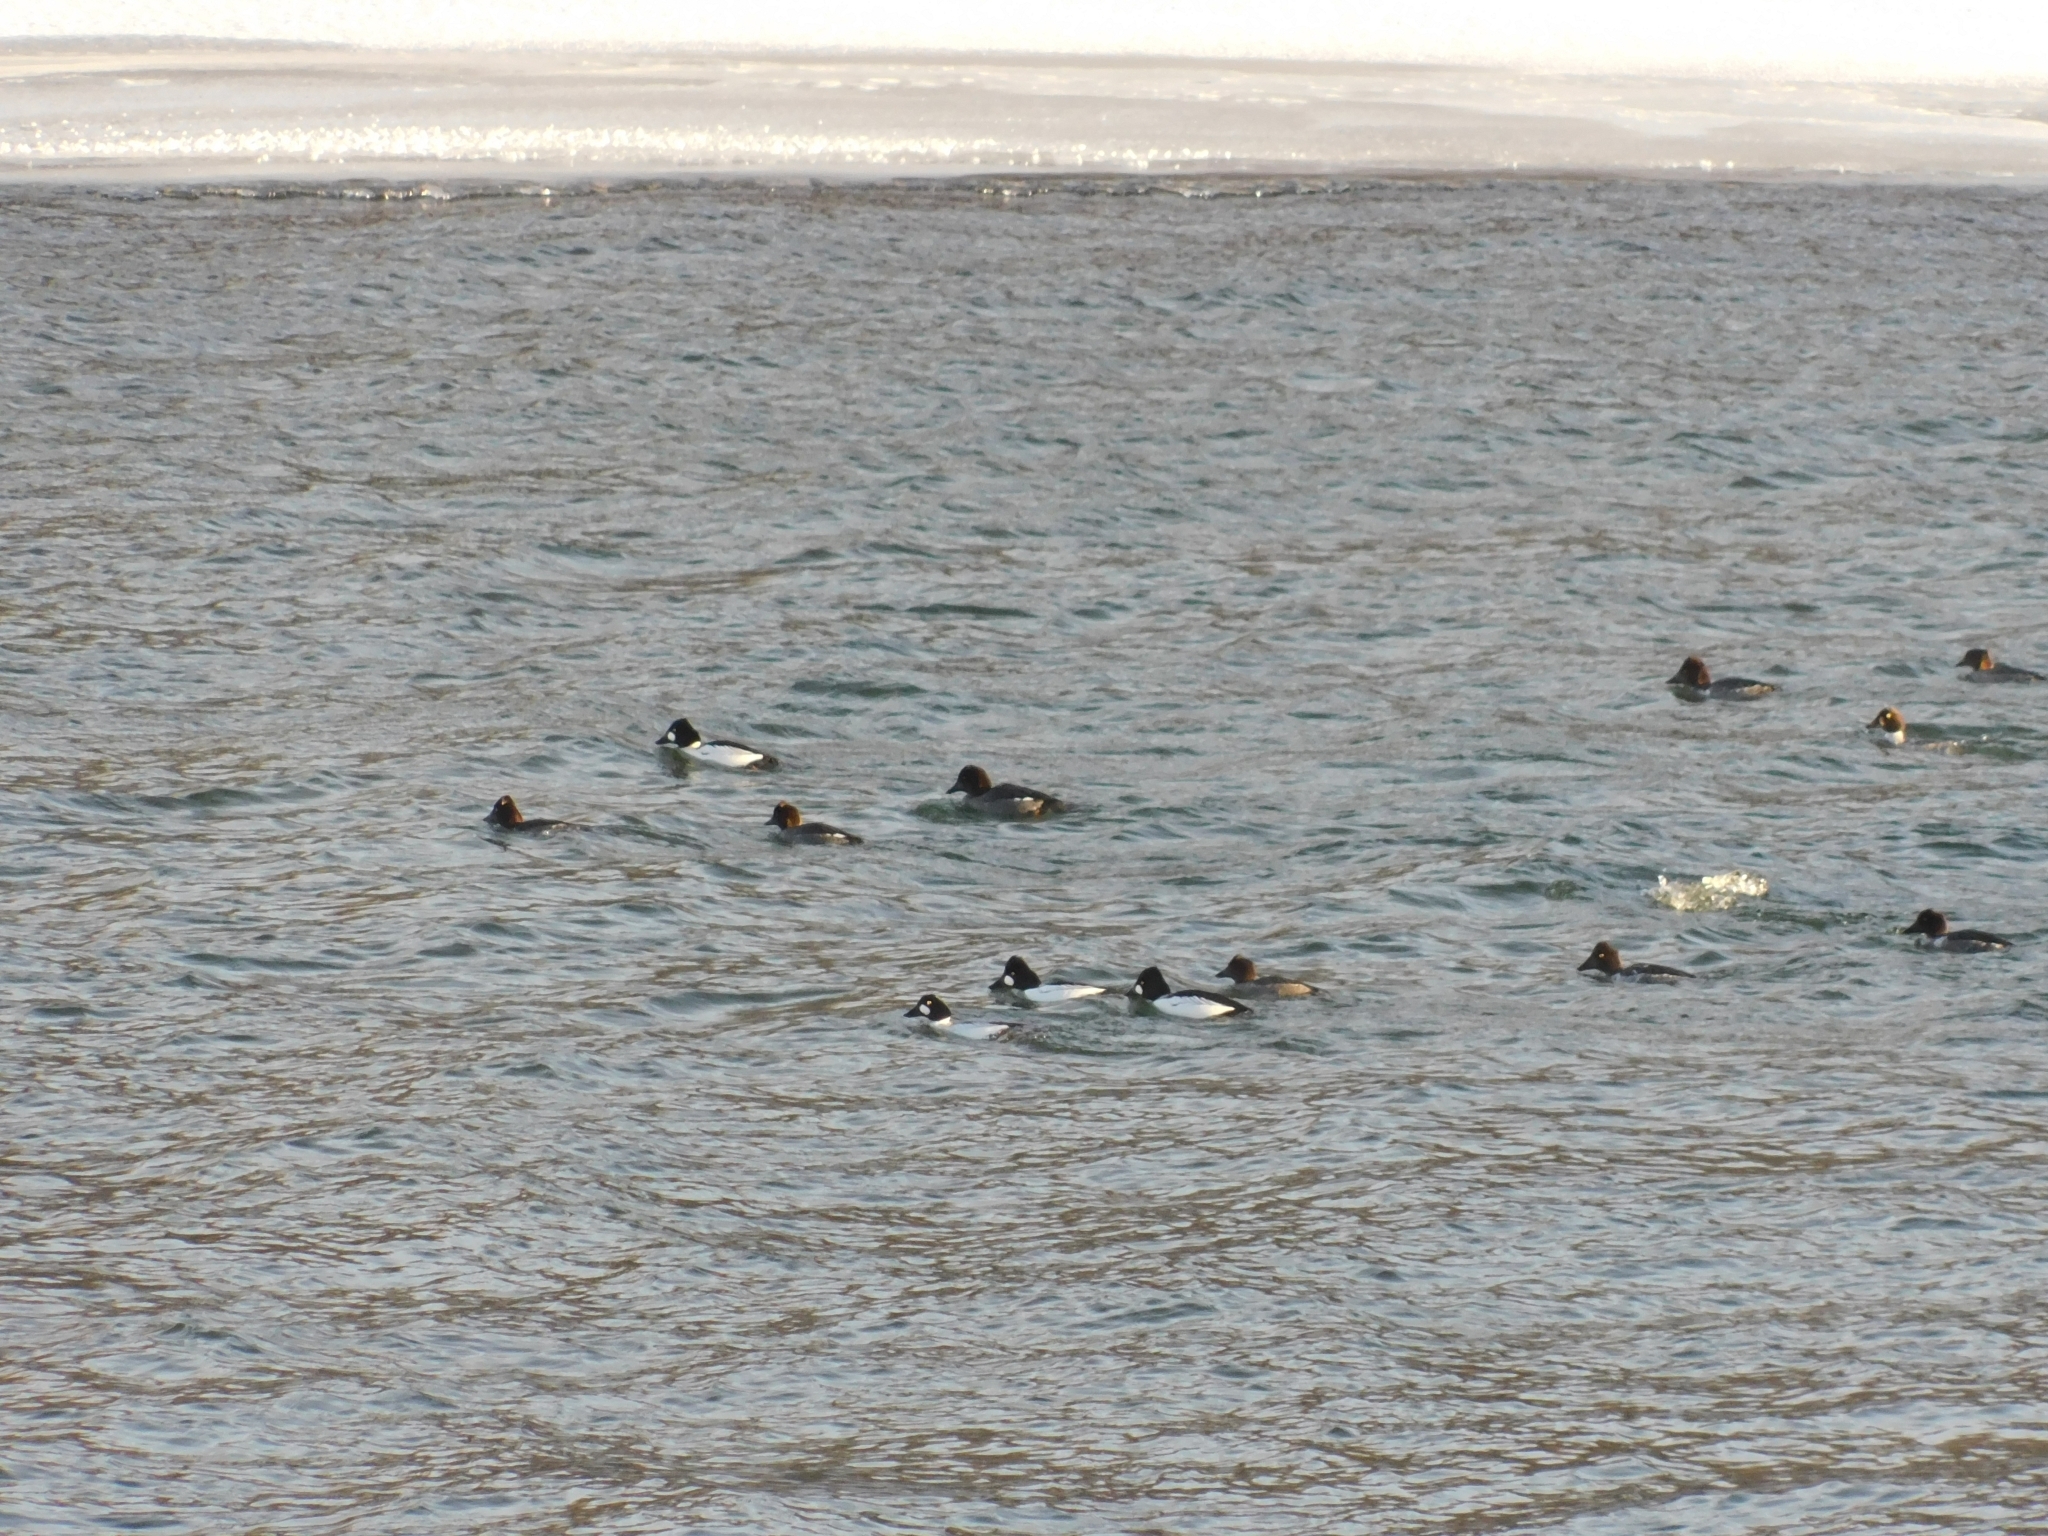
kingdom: Animalia
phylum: Chordata
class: Aves
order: Anseriformes
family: Anatidae
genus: Bucephala
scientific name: Bucephala clangula
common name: Common goldeneye
